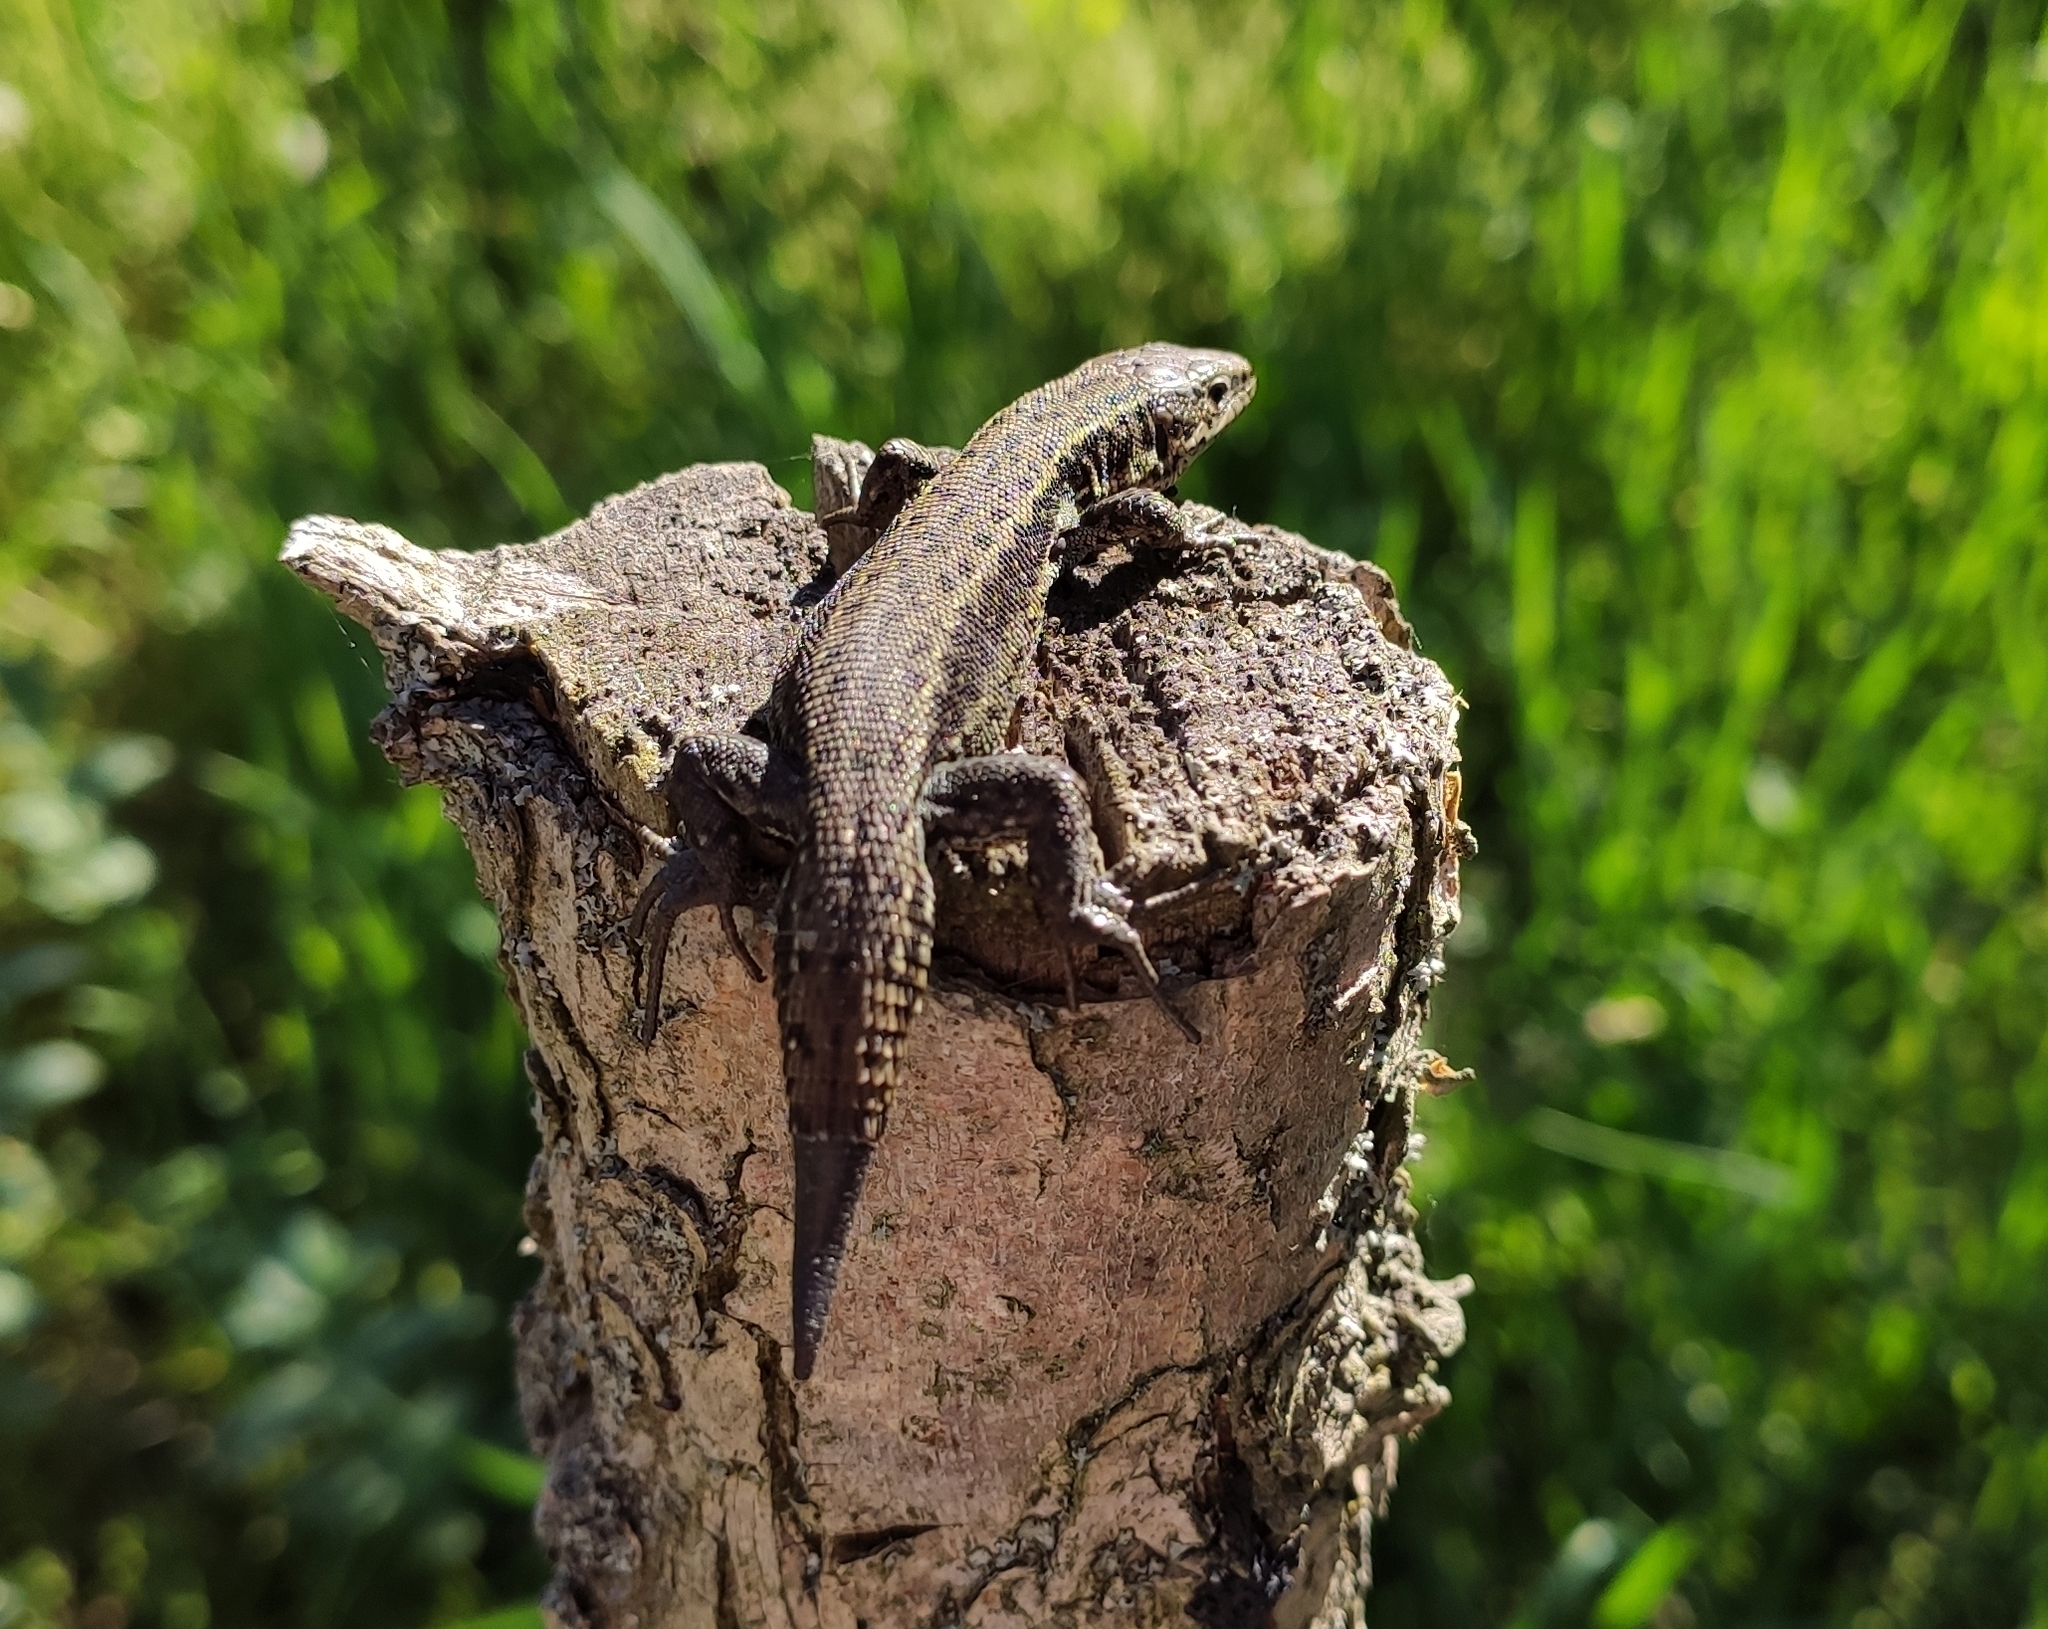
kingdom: Animalia
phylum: Chordata
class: Squamata
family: Lacertidae
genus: Zootoca
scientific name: Zootoca vivipara
